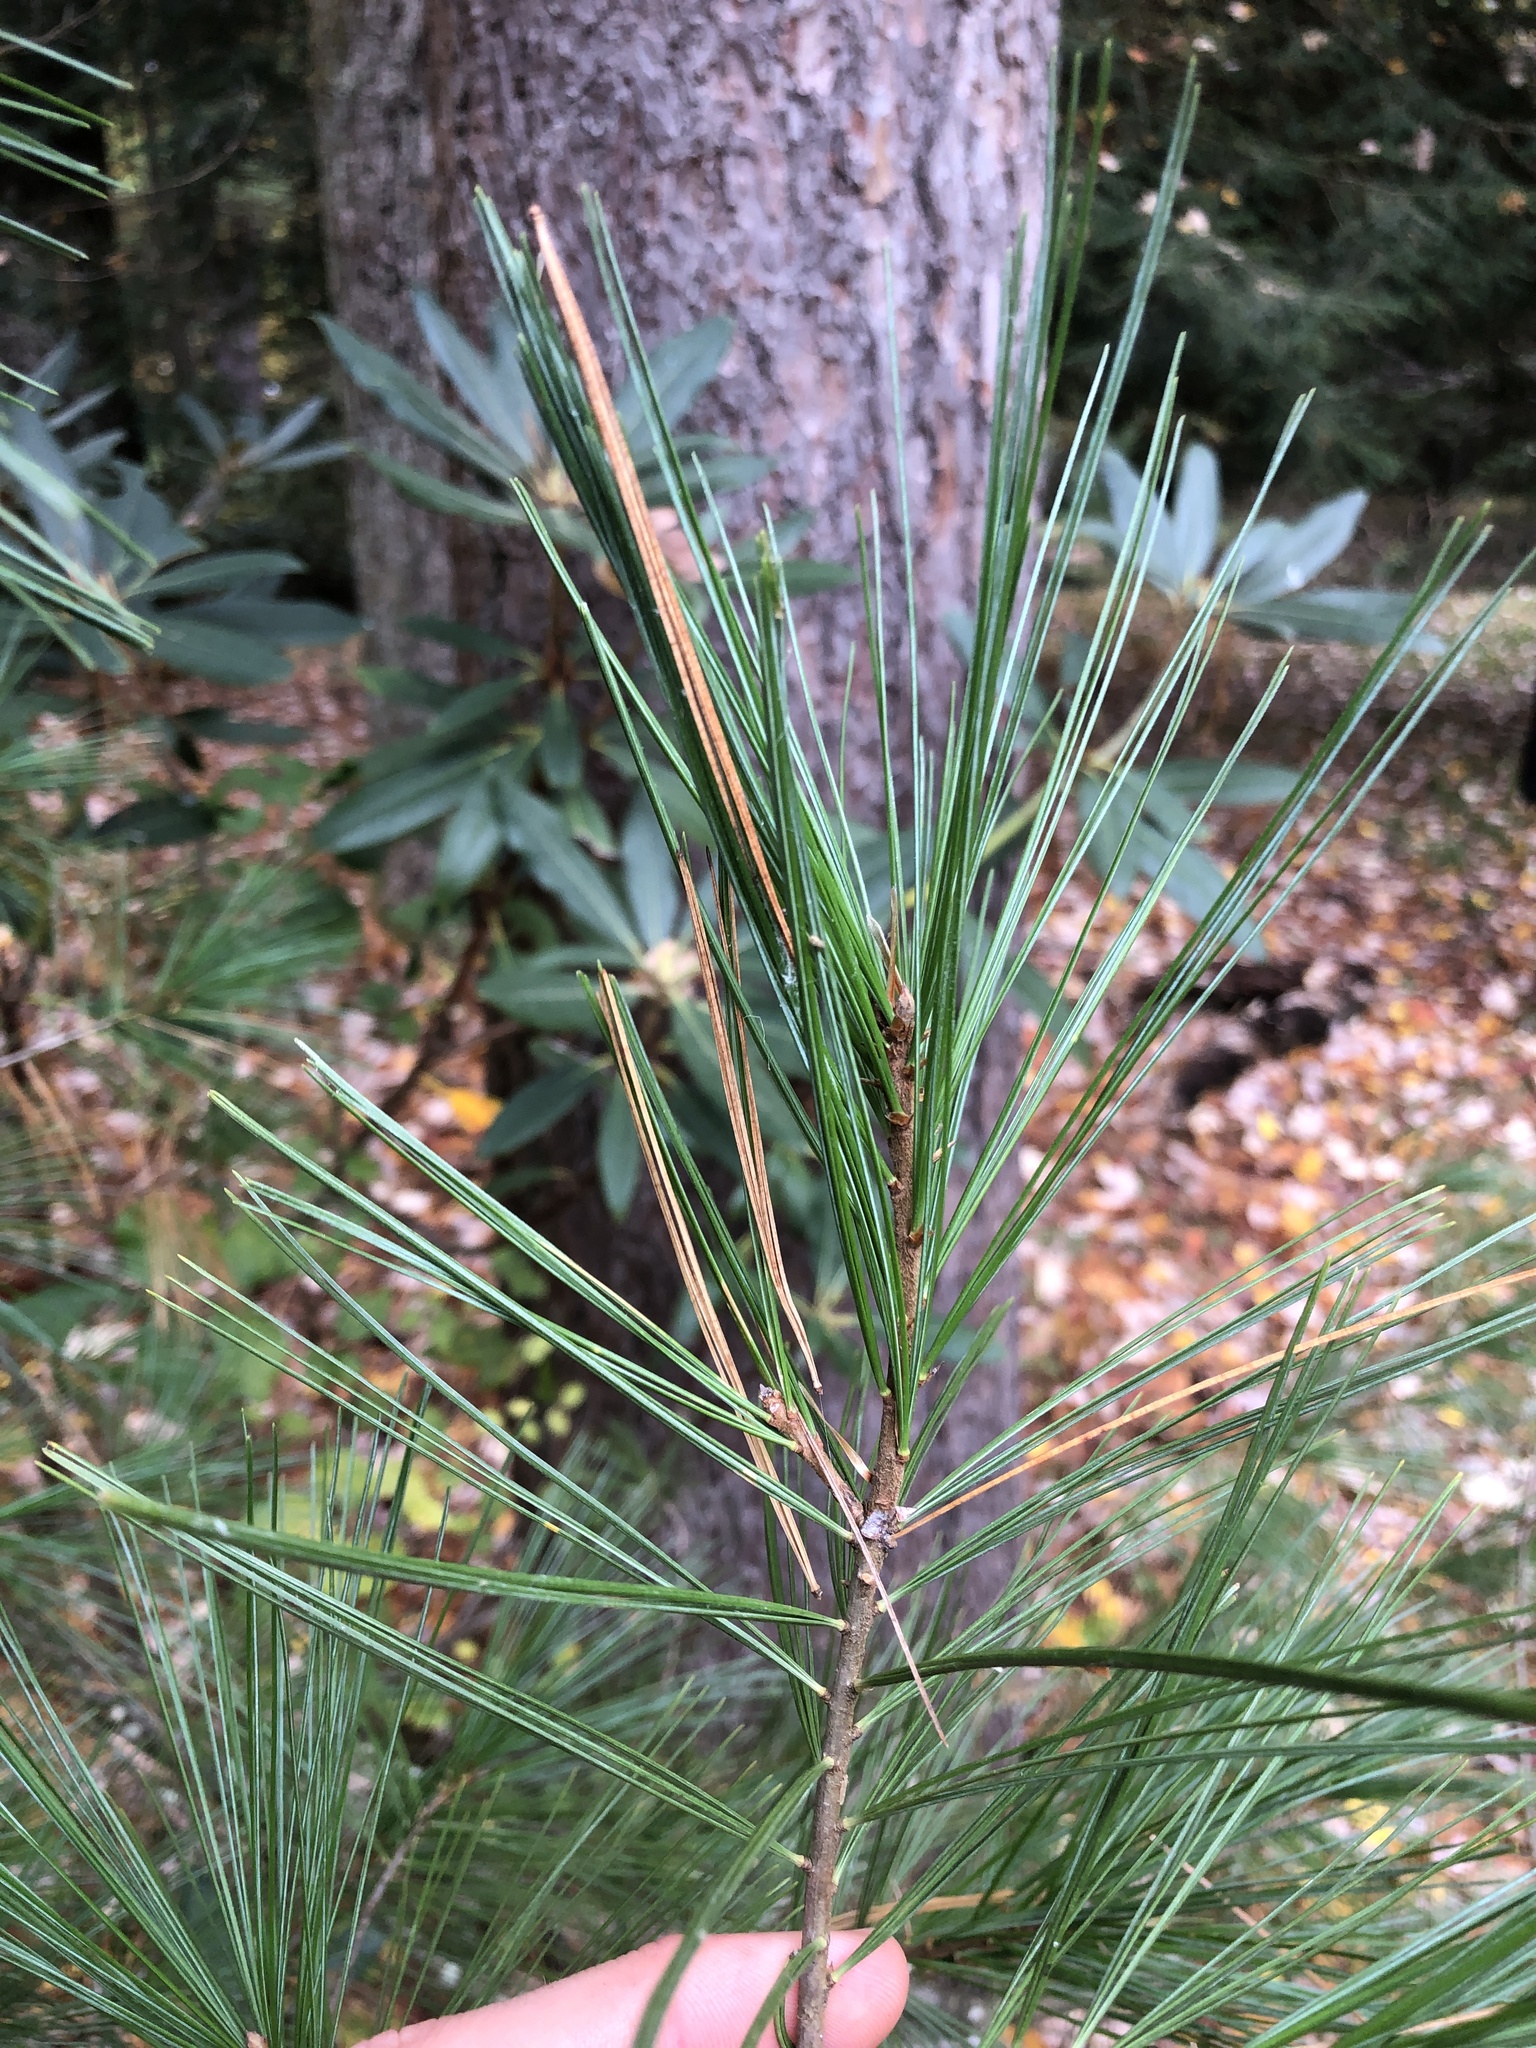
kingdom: Plantae
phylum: Tracheophyta
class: Pinopsida
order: Pinales
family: Pinaceae
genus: Pinus
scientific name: Pinus strobus
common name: Weymouth pine
